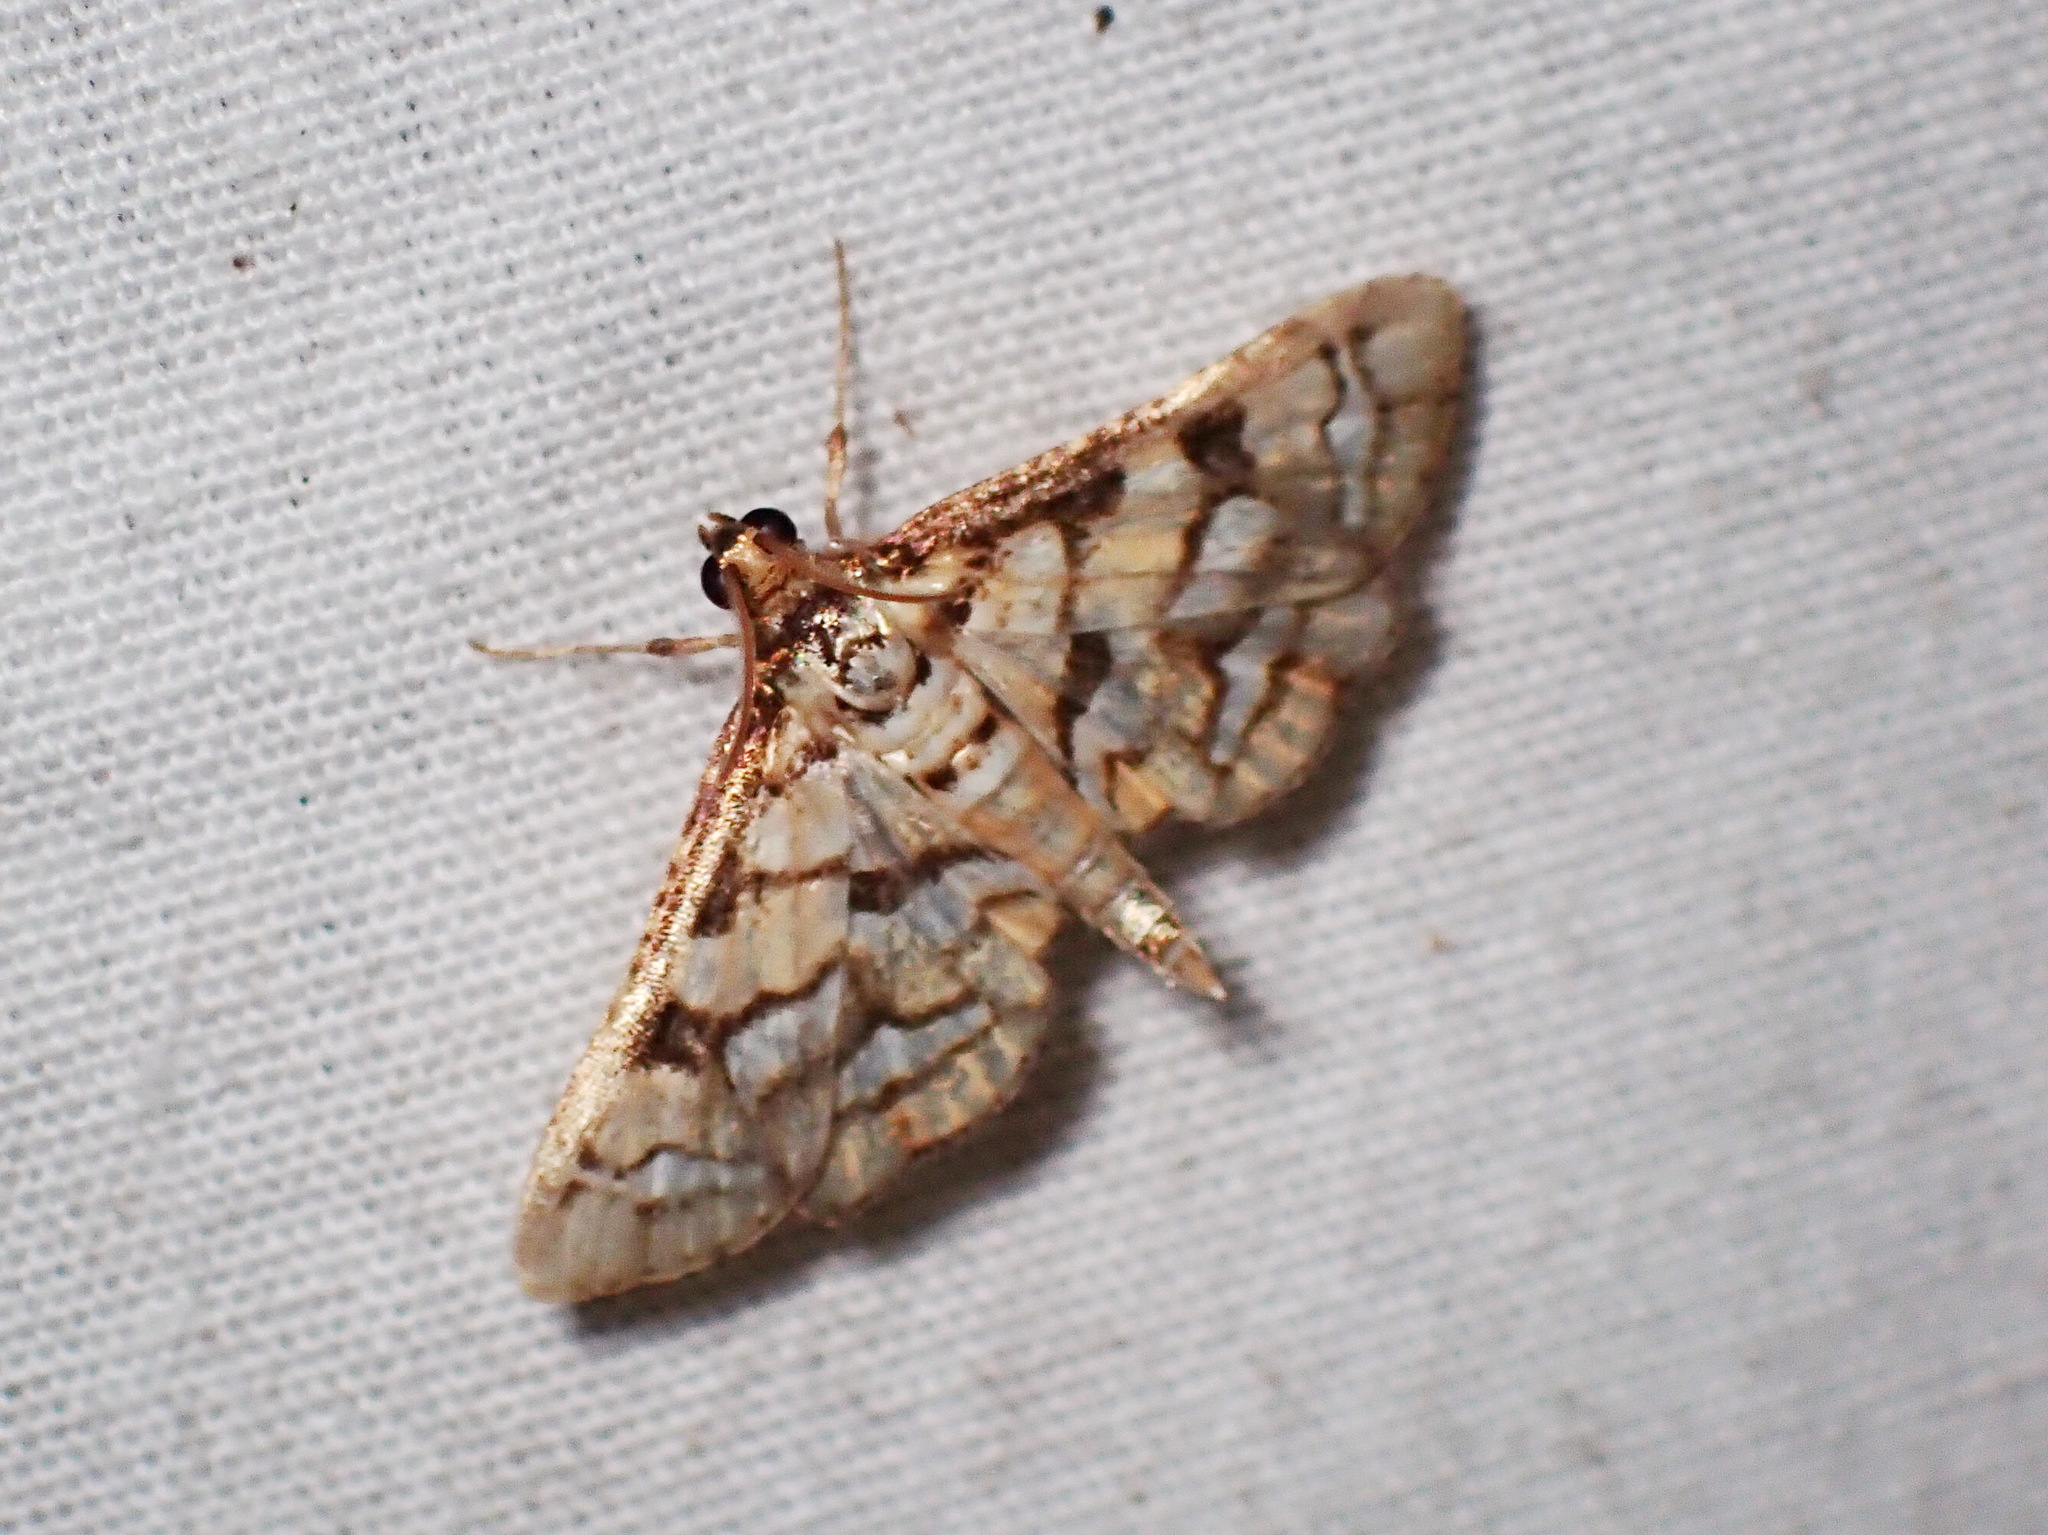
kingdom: Animalia
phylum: Arthropoda
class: Insecta
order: Lepidoptera
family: Crambidae
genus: Hileithia
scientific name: Hileithia magualis
